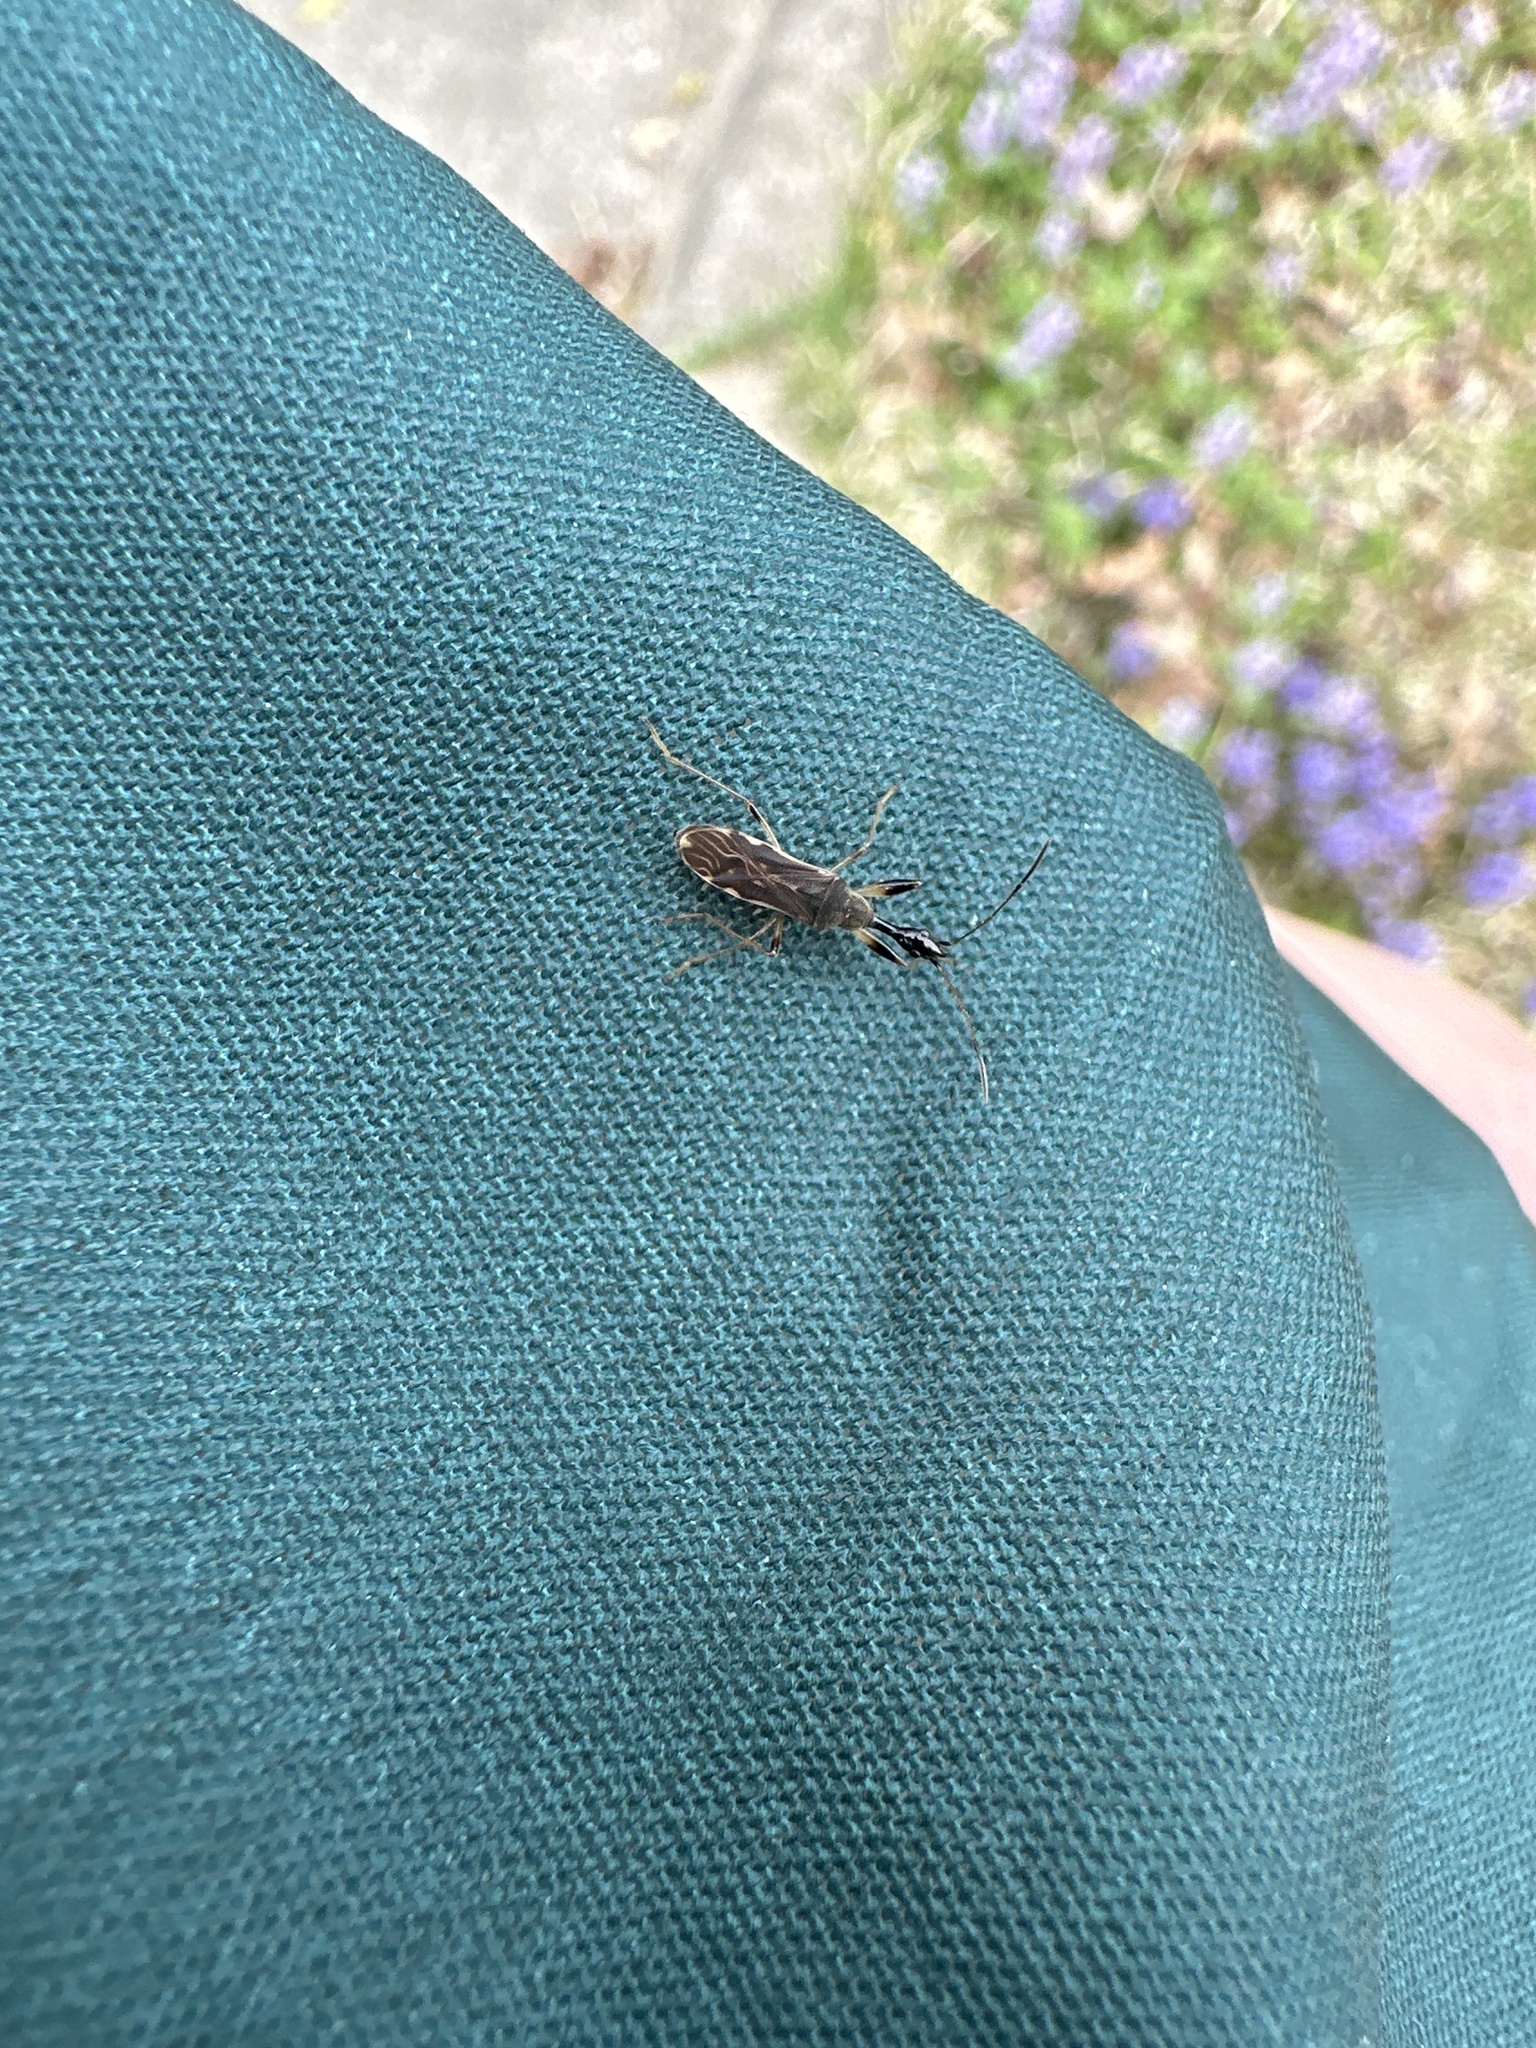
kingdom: Animalia
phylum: Arthropoda
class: Insecta
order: Hemiptera
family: Rhyparochromidae
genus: Myodocha
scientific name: Myodocha serripes
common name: Long-necked seed bug
